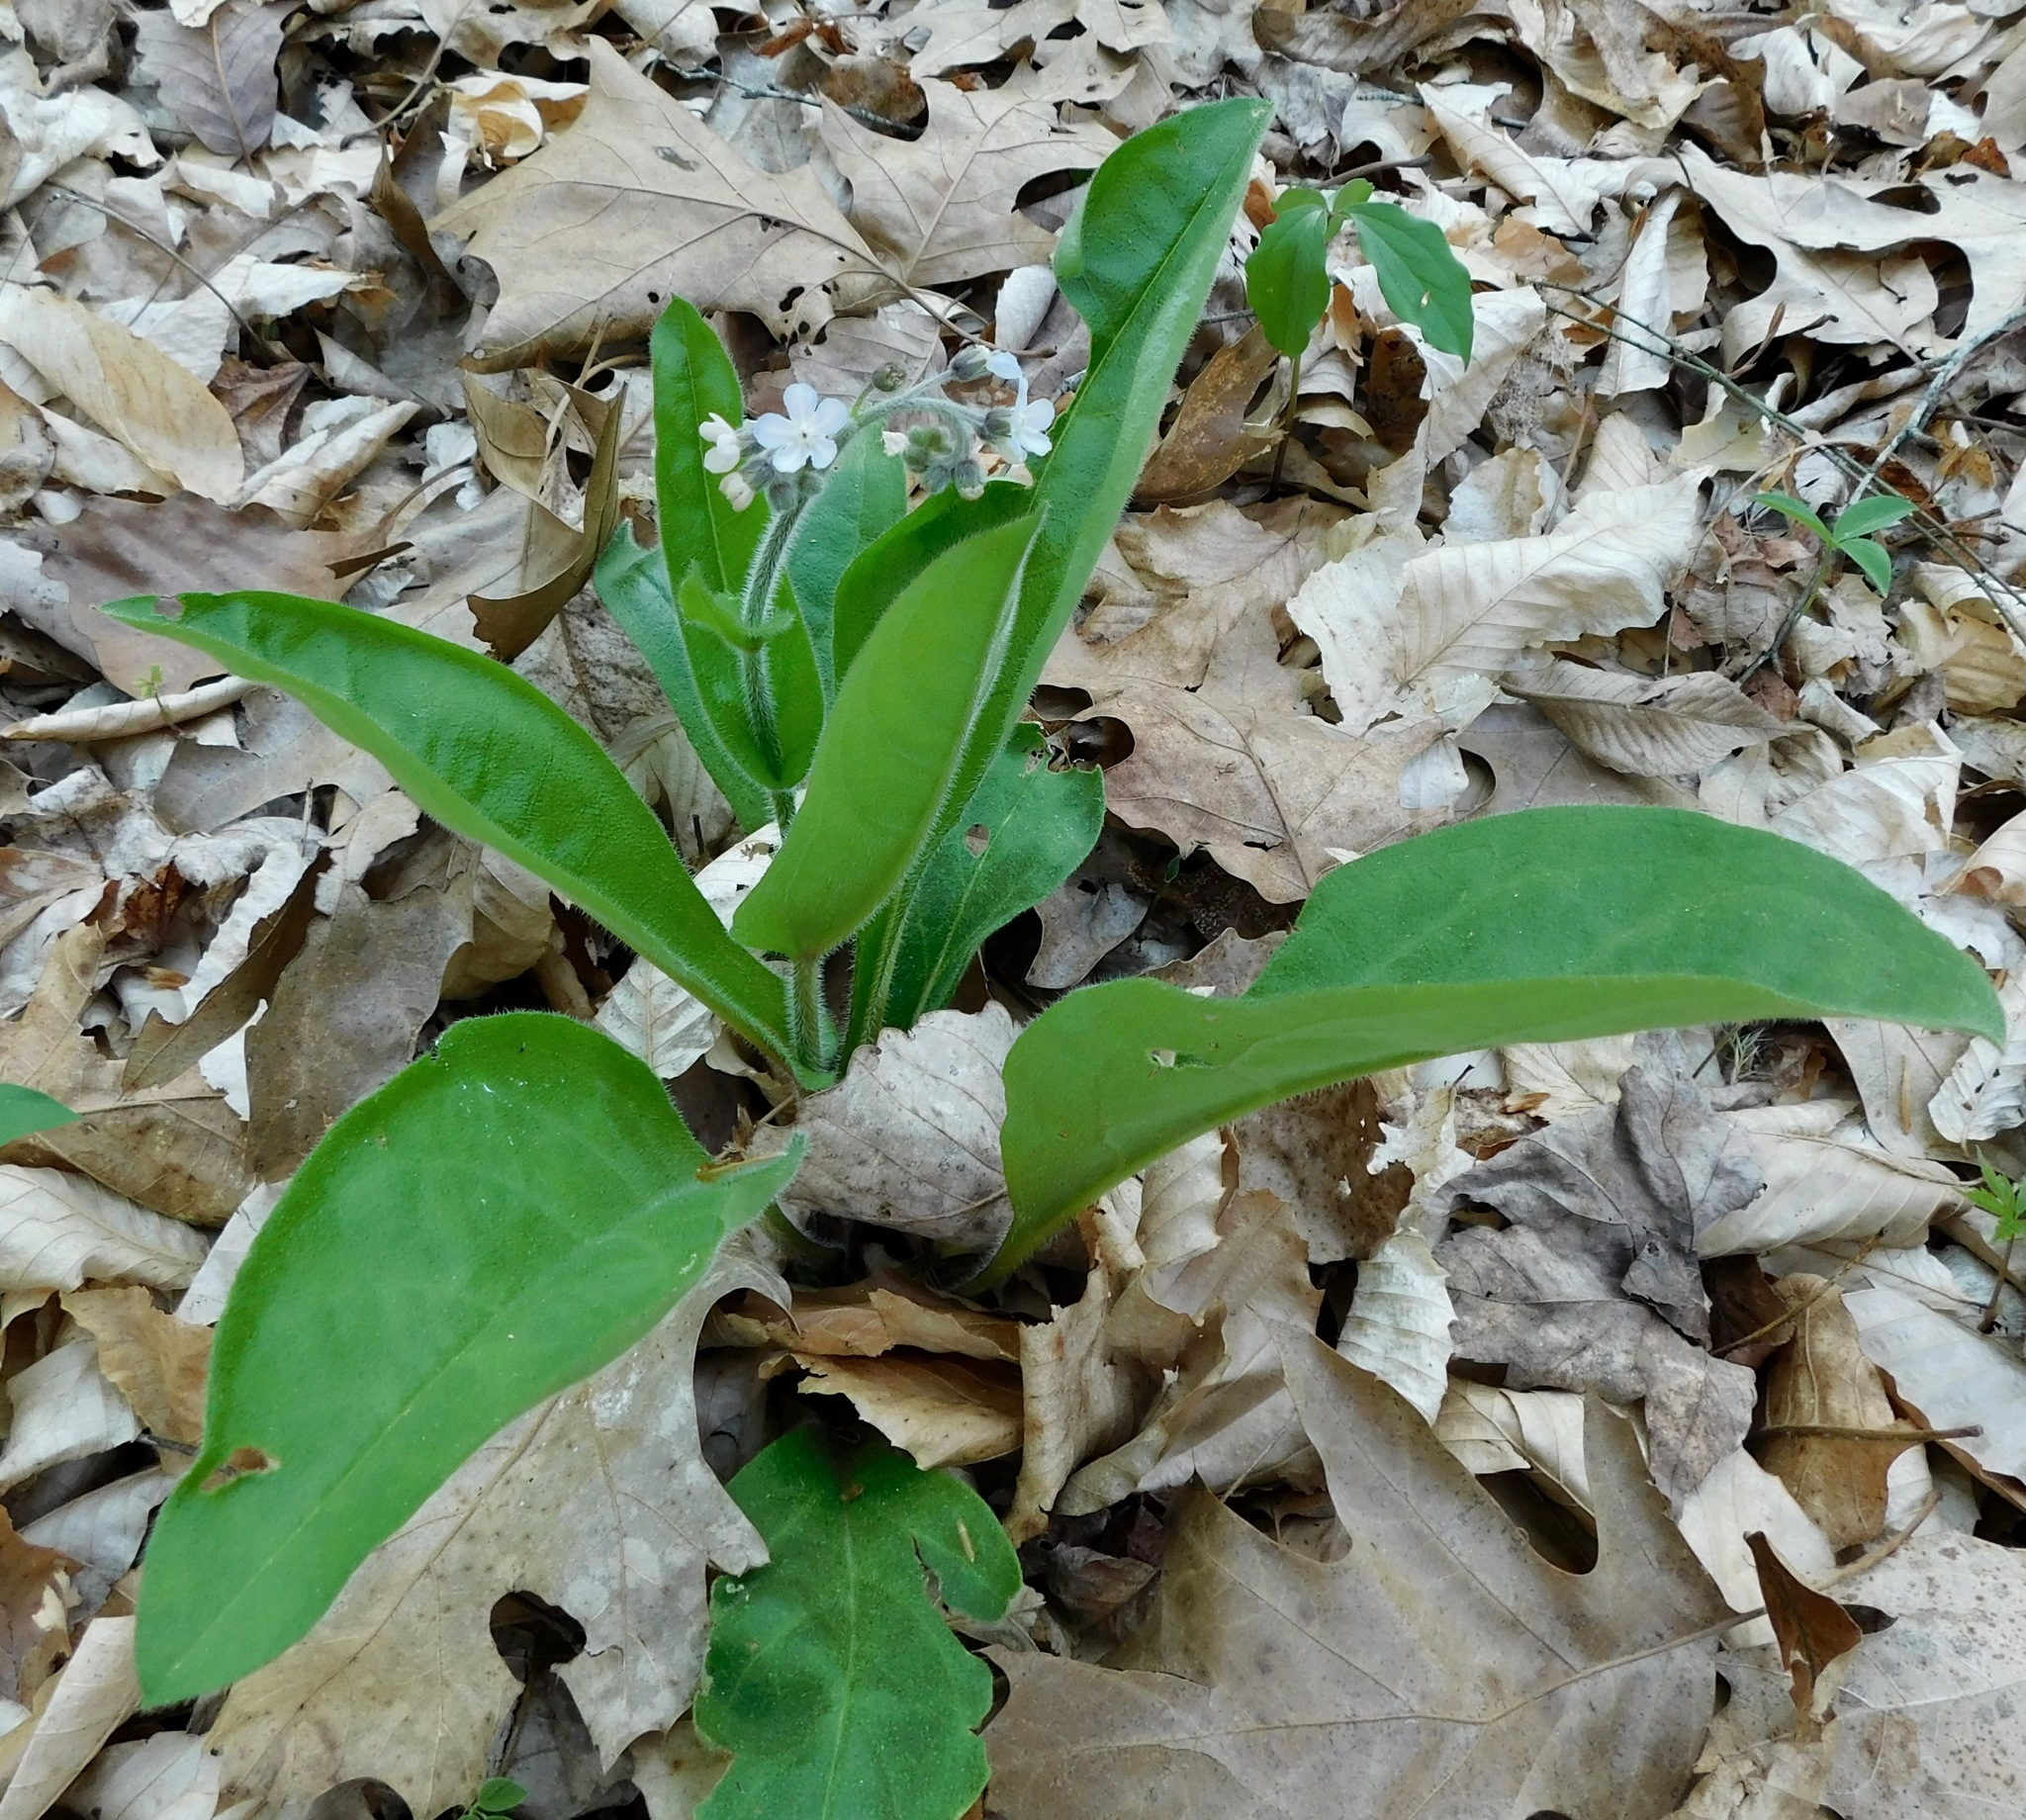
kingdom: Plantae
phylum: Tracheophyta
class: Magnoliopsida
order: Boraginales
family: Boraginaceae
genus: Andersonglossum
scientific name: Andersonglossum virginianum
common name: Wild comfrey
